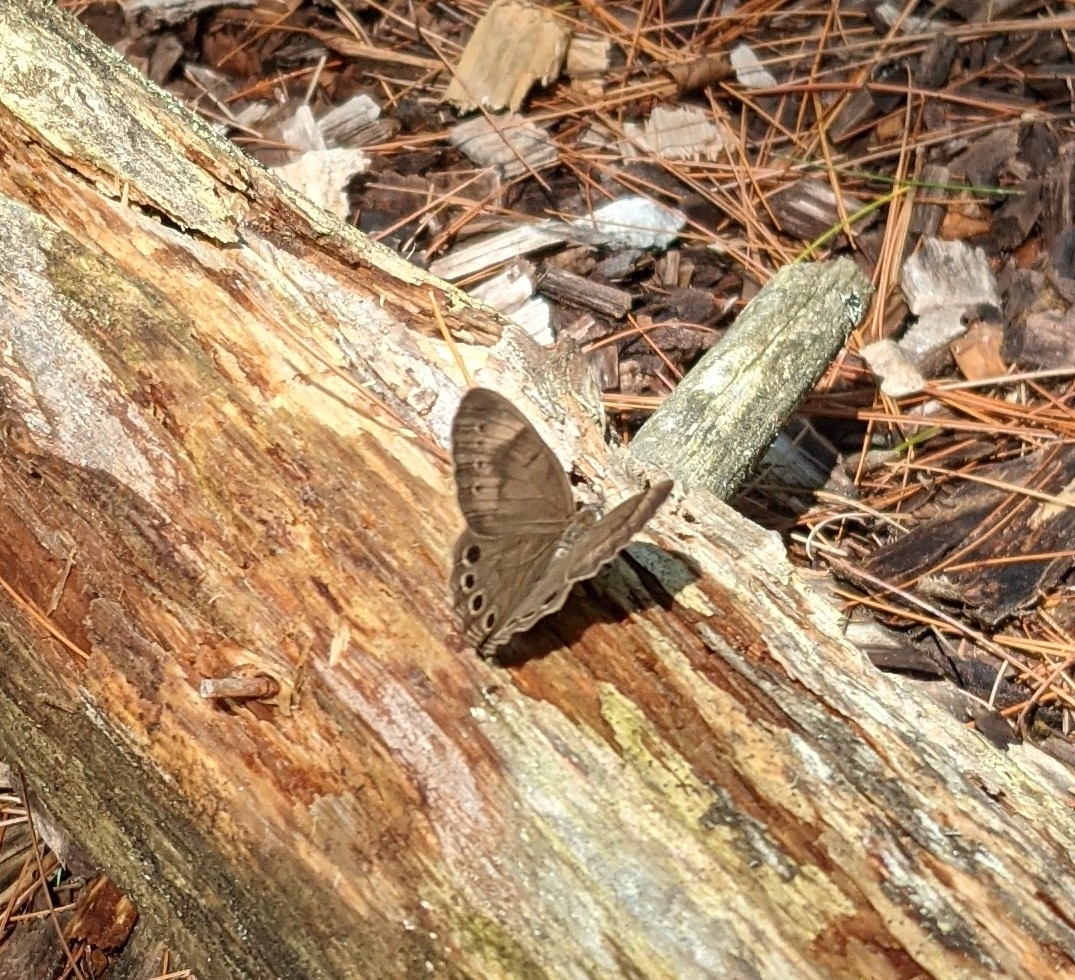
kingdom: Animalia
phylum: Arthropoda
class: Insecta
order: Lepidoptera
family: Nymphalidae
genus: Lethe
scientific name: Lethe eurydice
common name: Eyed brown
